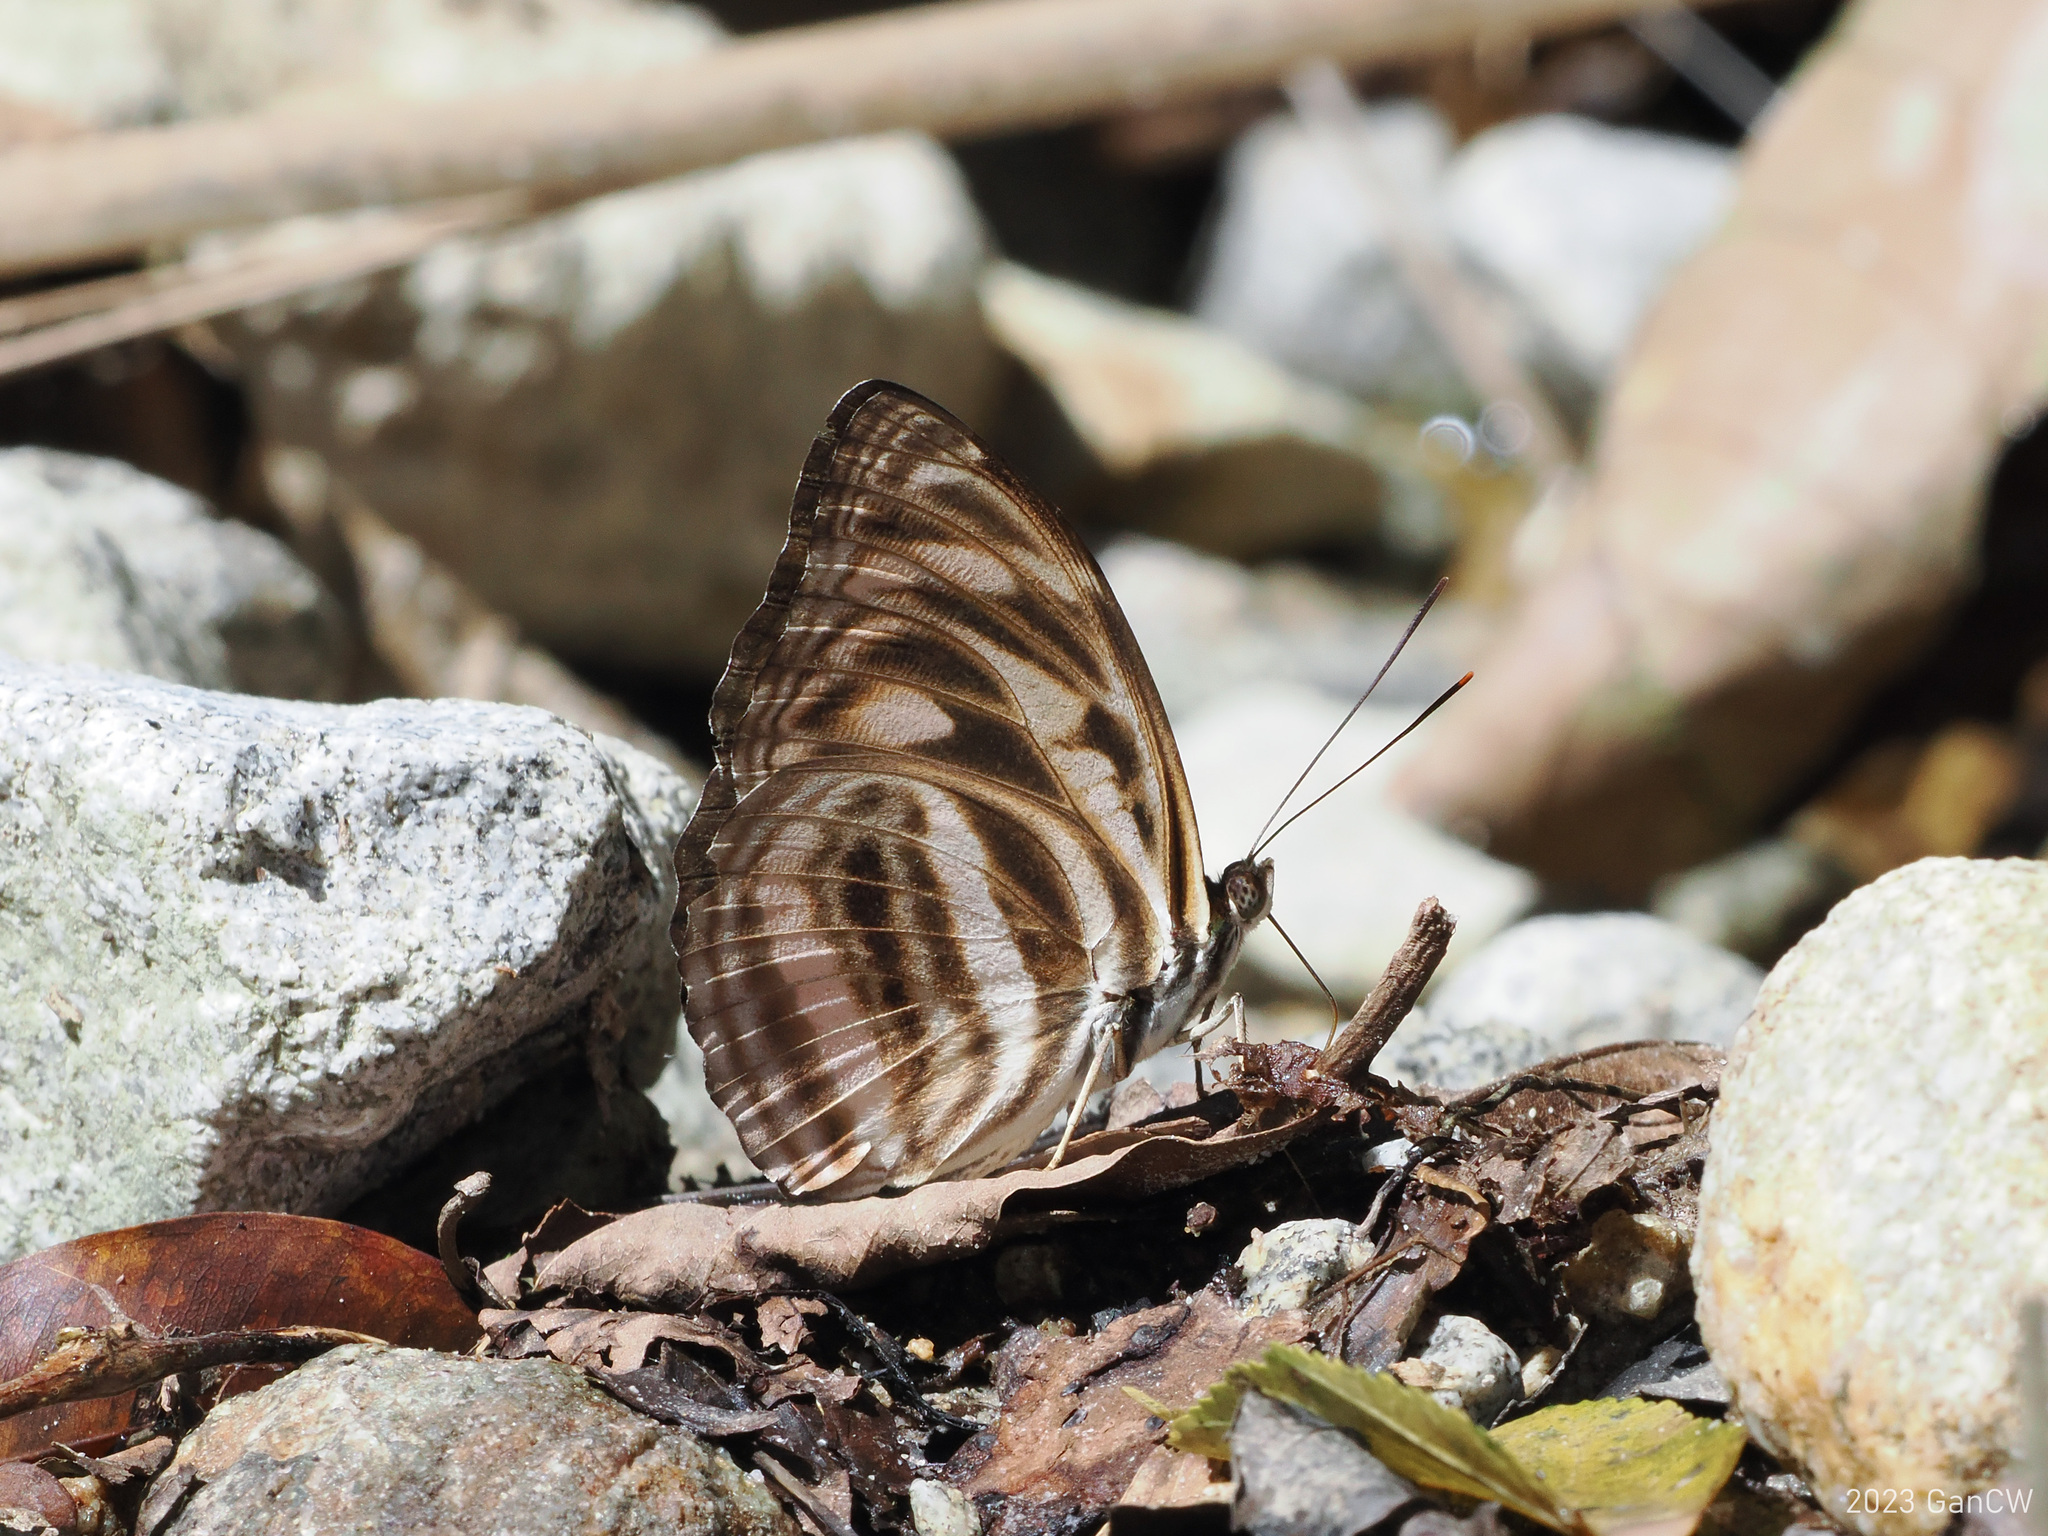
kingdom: Animalia
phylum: Arthropoda
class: Insecta
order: Lepidoptera
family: Nymphalidae
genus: Pantoporia
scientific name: Pantoporia eulimene
